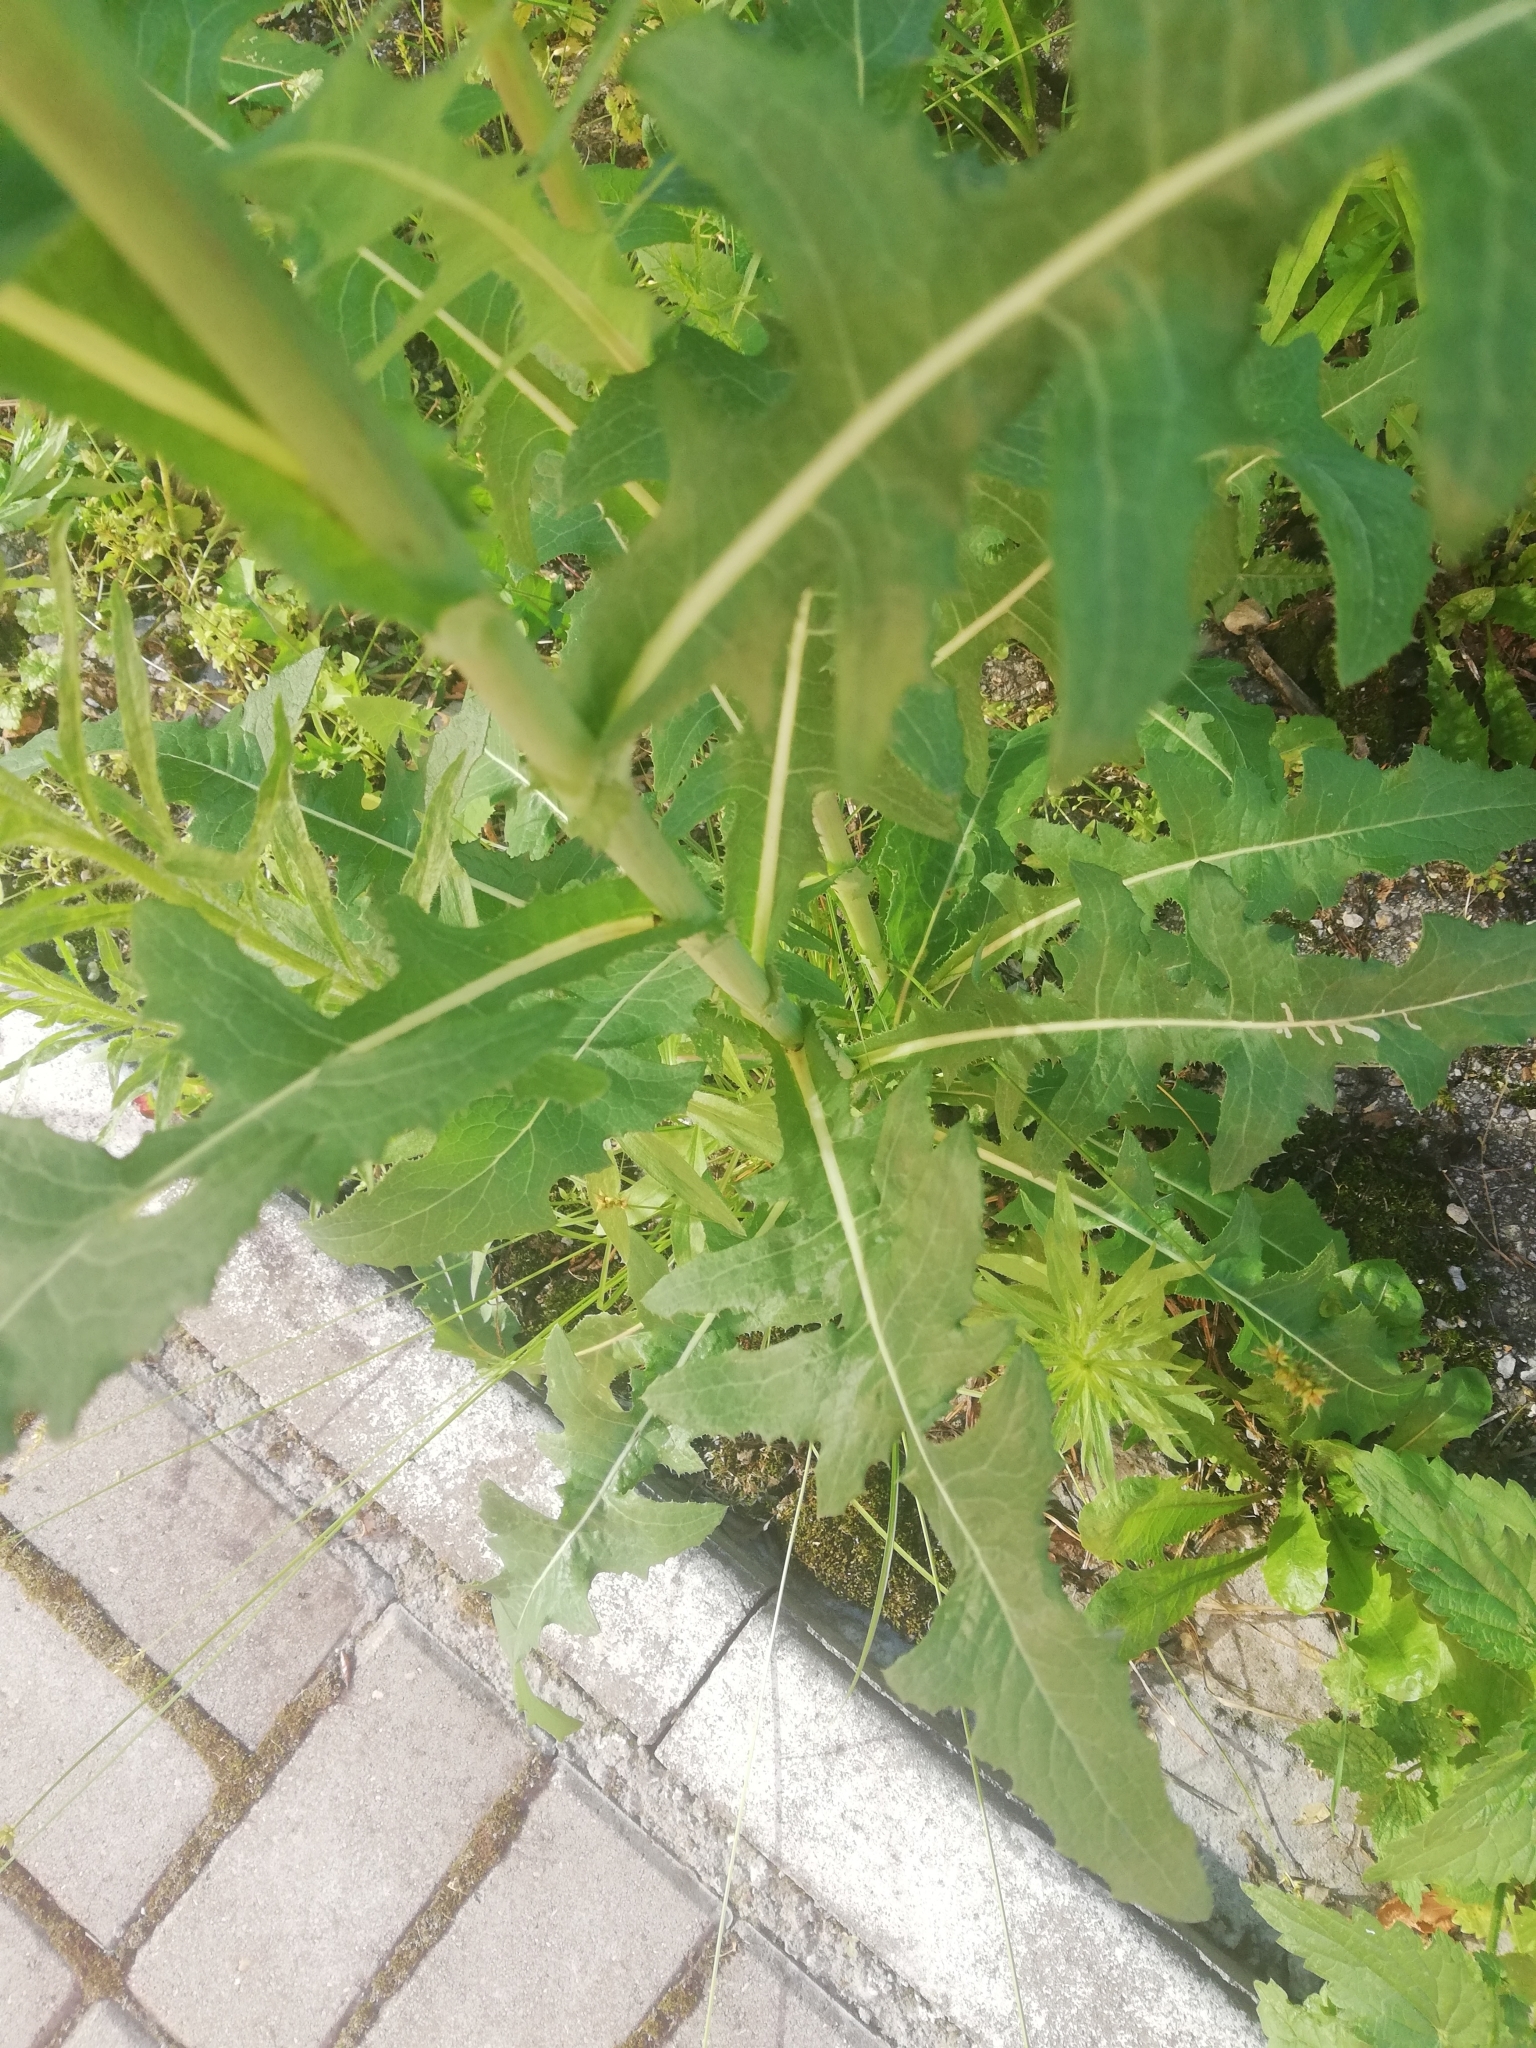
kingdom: Plantae
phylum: Tracheophyta
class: Magnoliopsida
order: Asterales
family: Asteraceae
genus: Sonchus
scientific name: Sonchus arvensis
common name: Perennial sow-thistle
